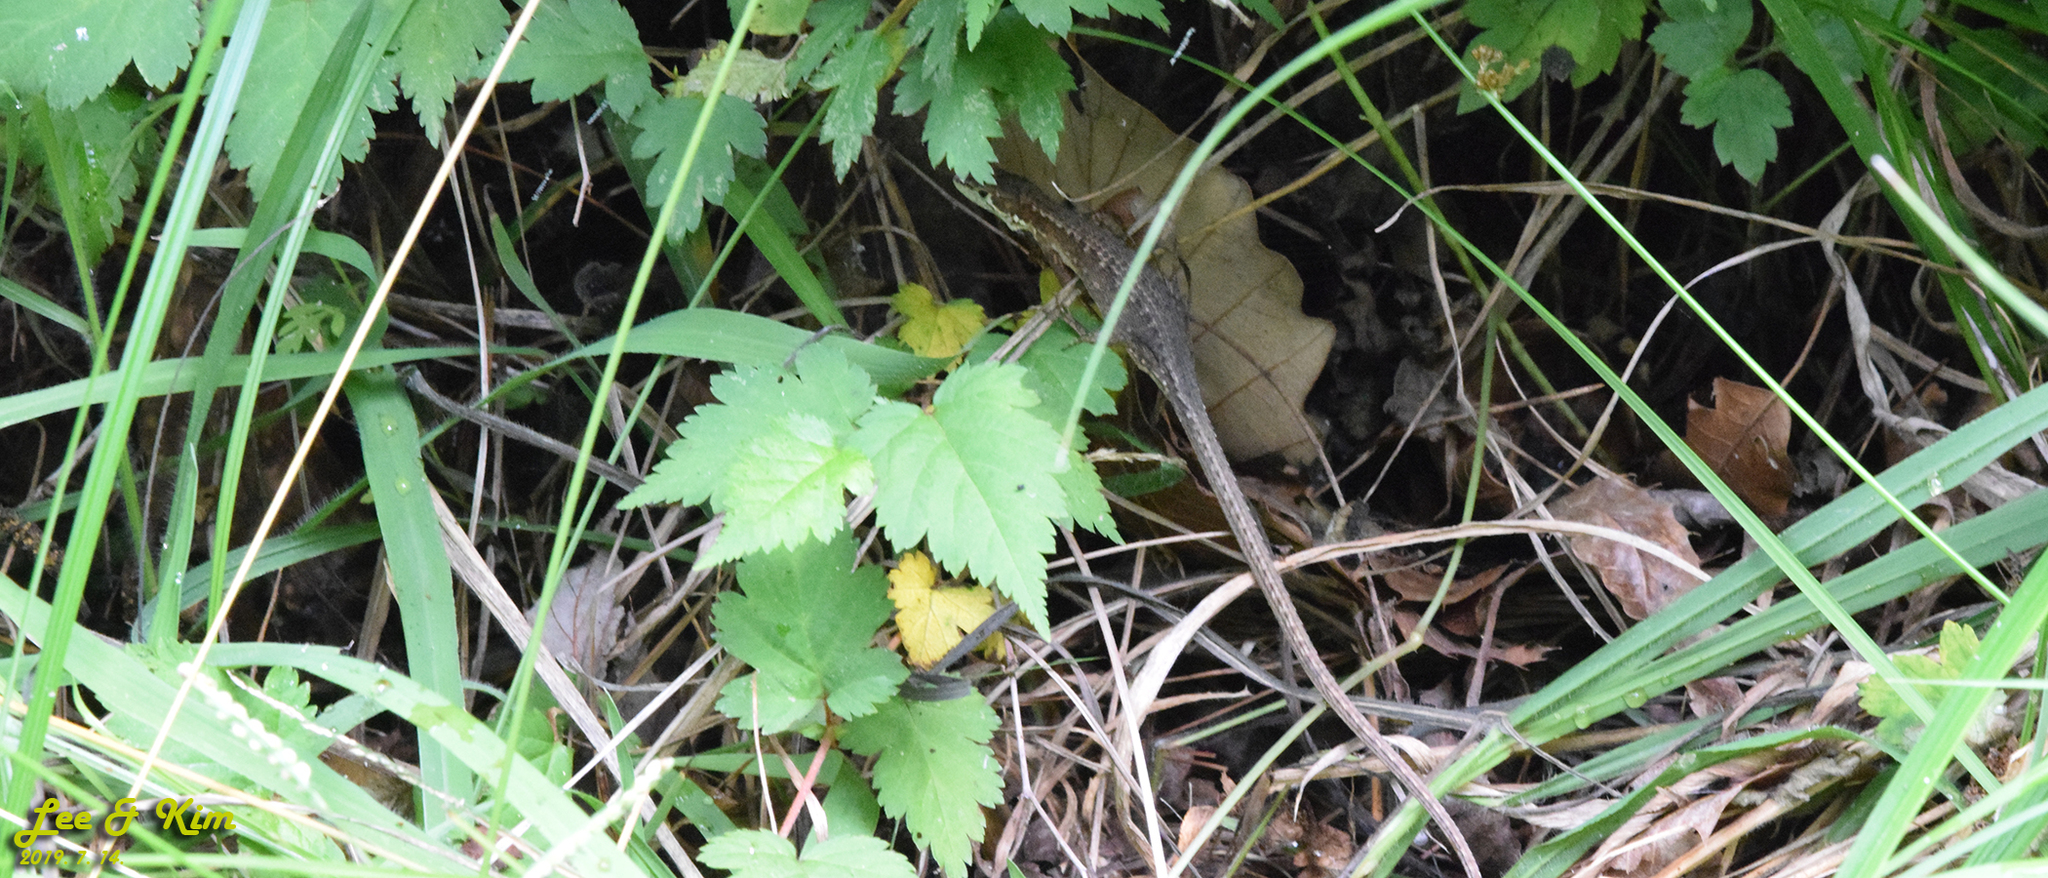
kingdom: Animalia
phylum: Chordata
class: Squamata
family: Lacertidae
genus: Takydromus
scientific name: Takydromus amurensis
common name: Amur grass lizard
